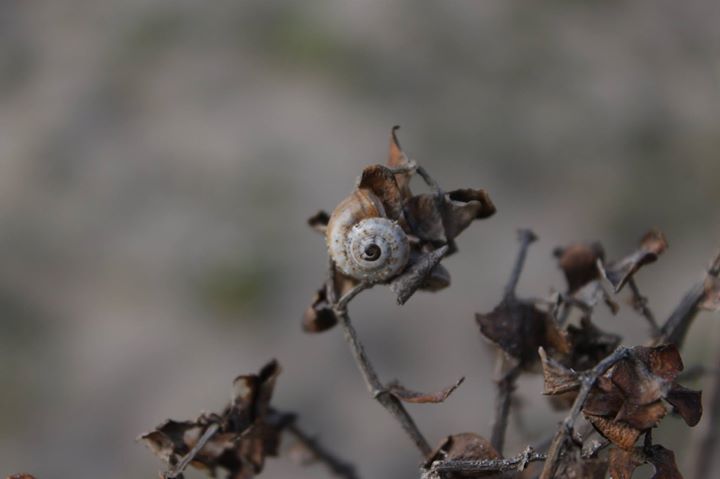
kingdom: Animalia
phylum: Mollusca
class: Gastropoda
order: Stylommatophora
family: Helicidae
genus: Theba
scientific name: Theba pisana
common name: White snail
